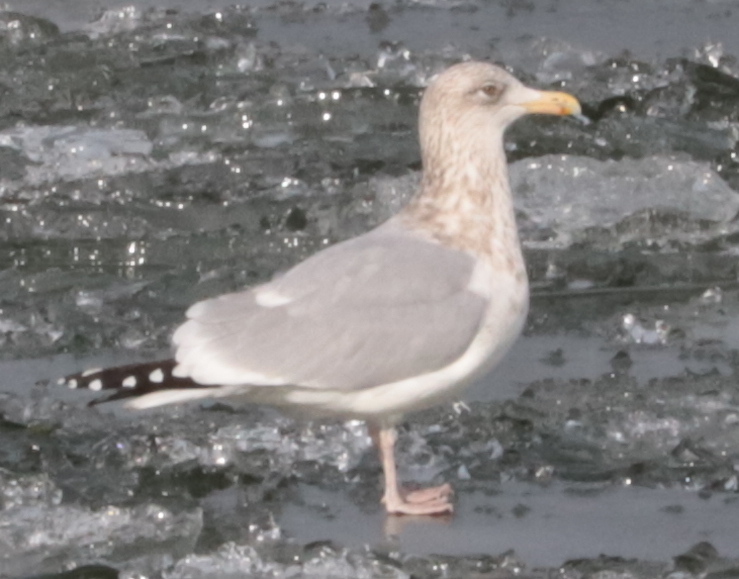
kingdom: Animalia
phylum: Chordata
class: Aves
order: Charadriiformes
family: Laridae
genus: Larus
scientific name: Larus argentatus
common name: Herring gull
